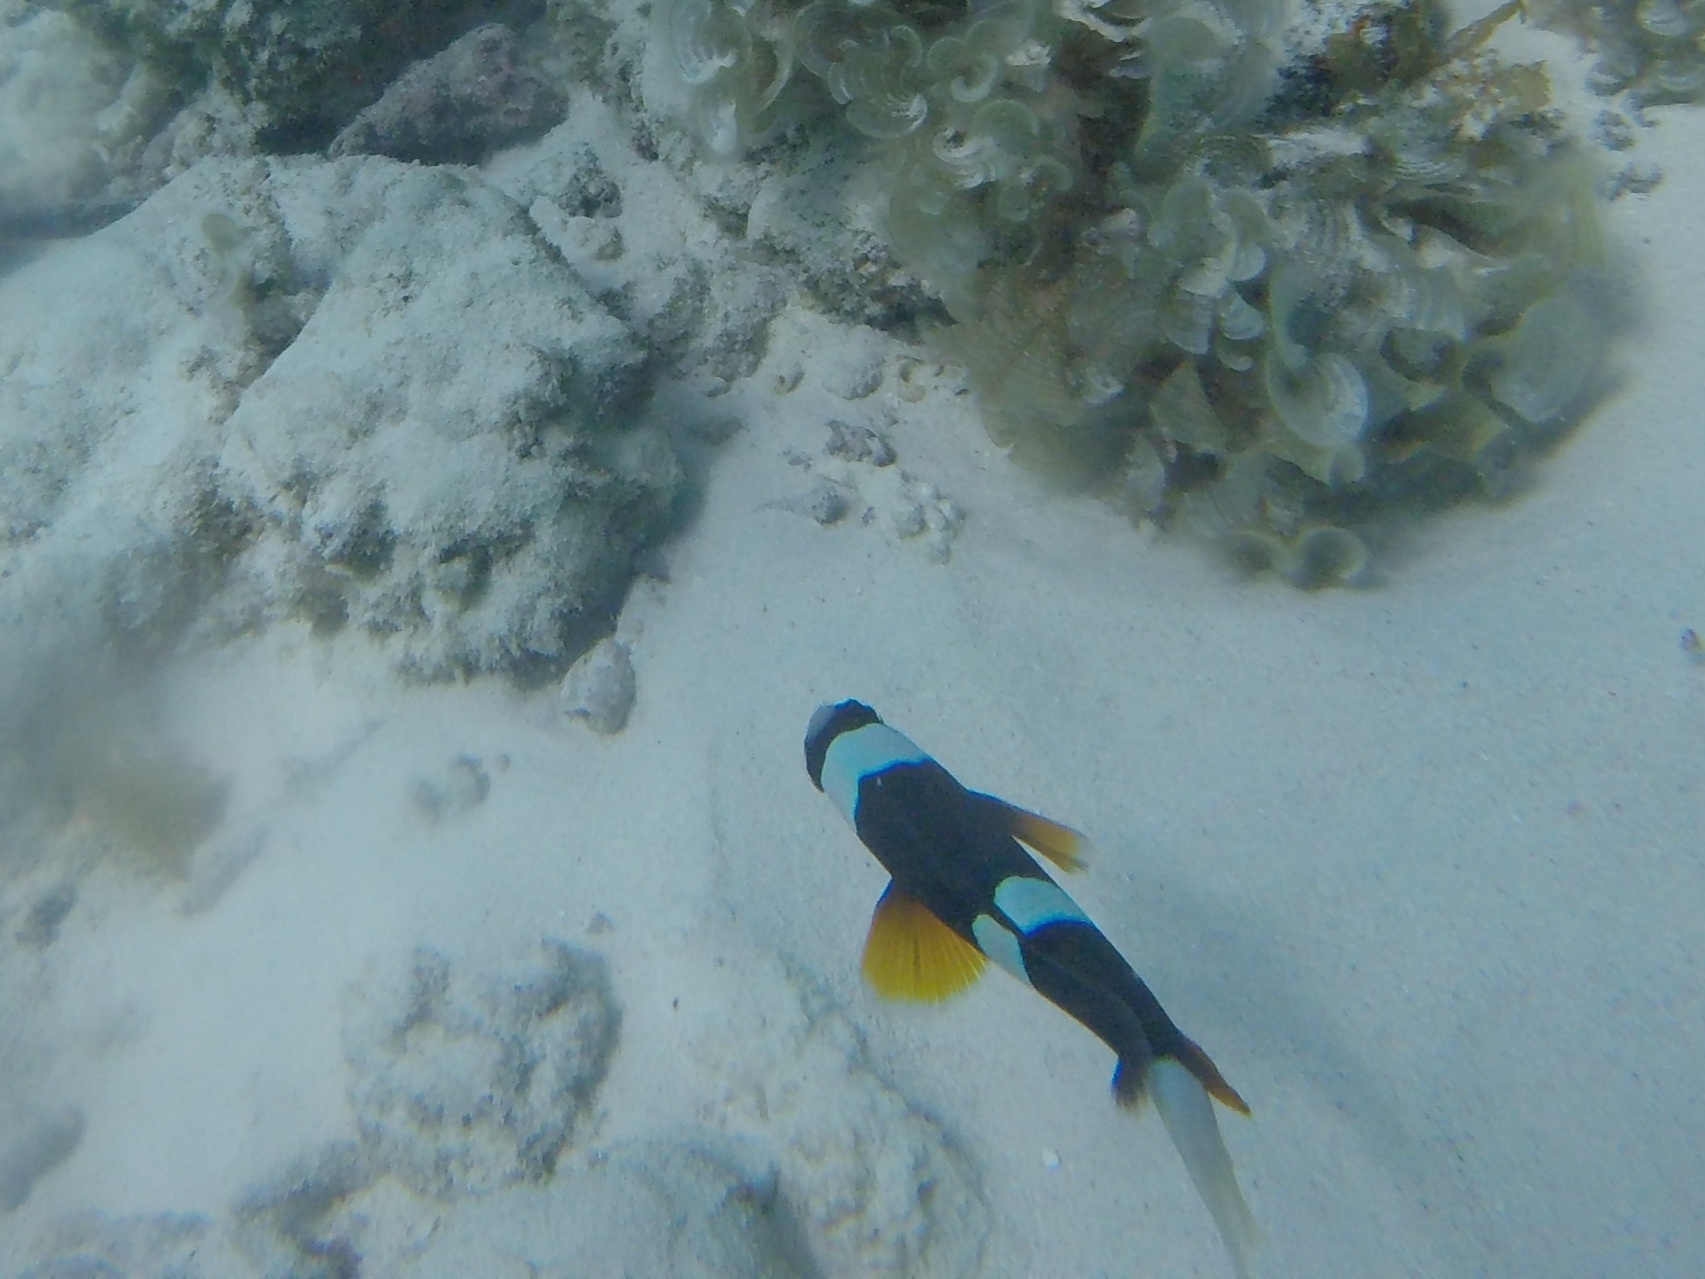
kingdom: Animalia
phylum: Chordata
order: Perciformes
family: Pomacentridae
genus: Amphiprion
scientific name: Amphiprion allardi
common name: Allard's anemonefish
